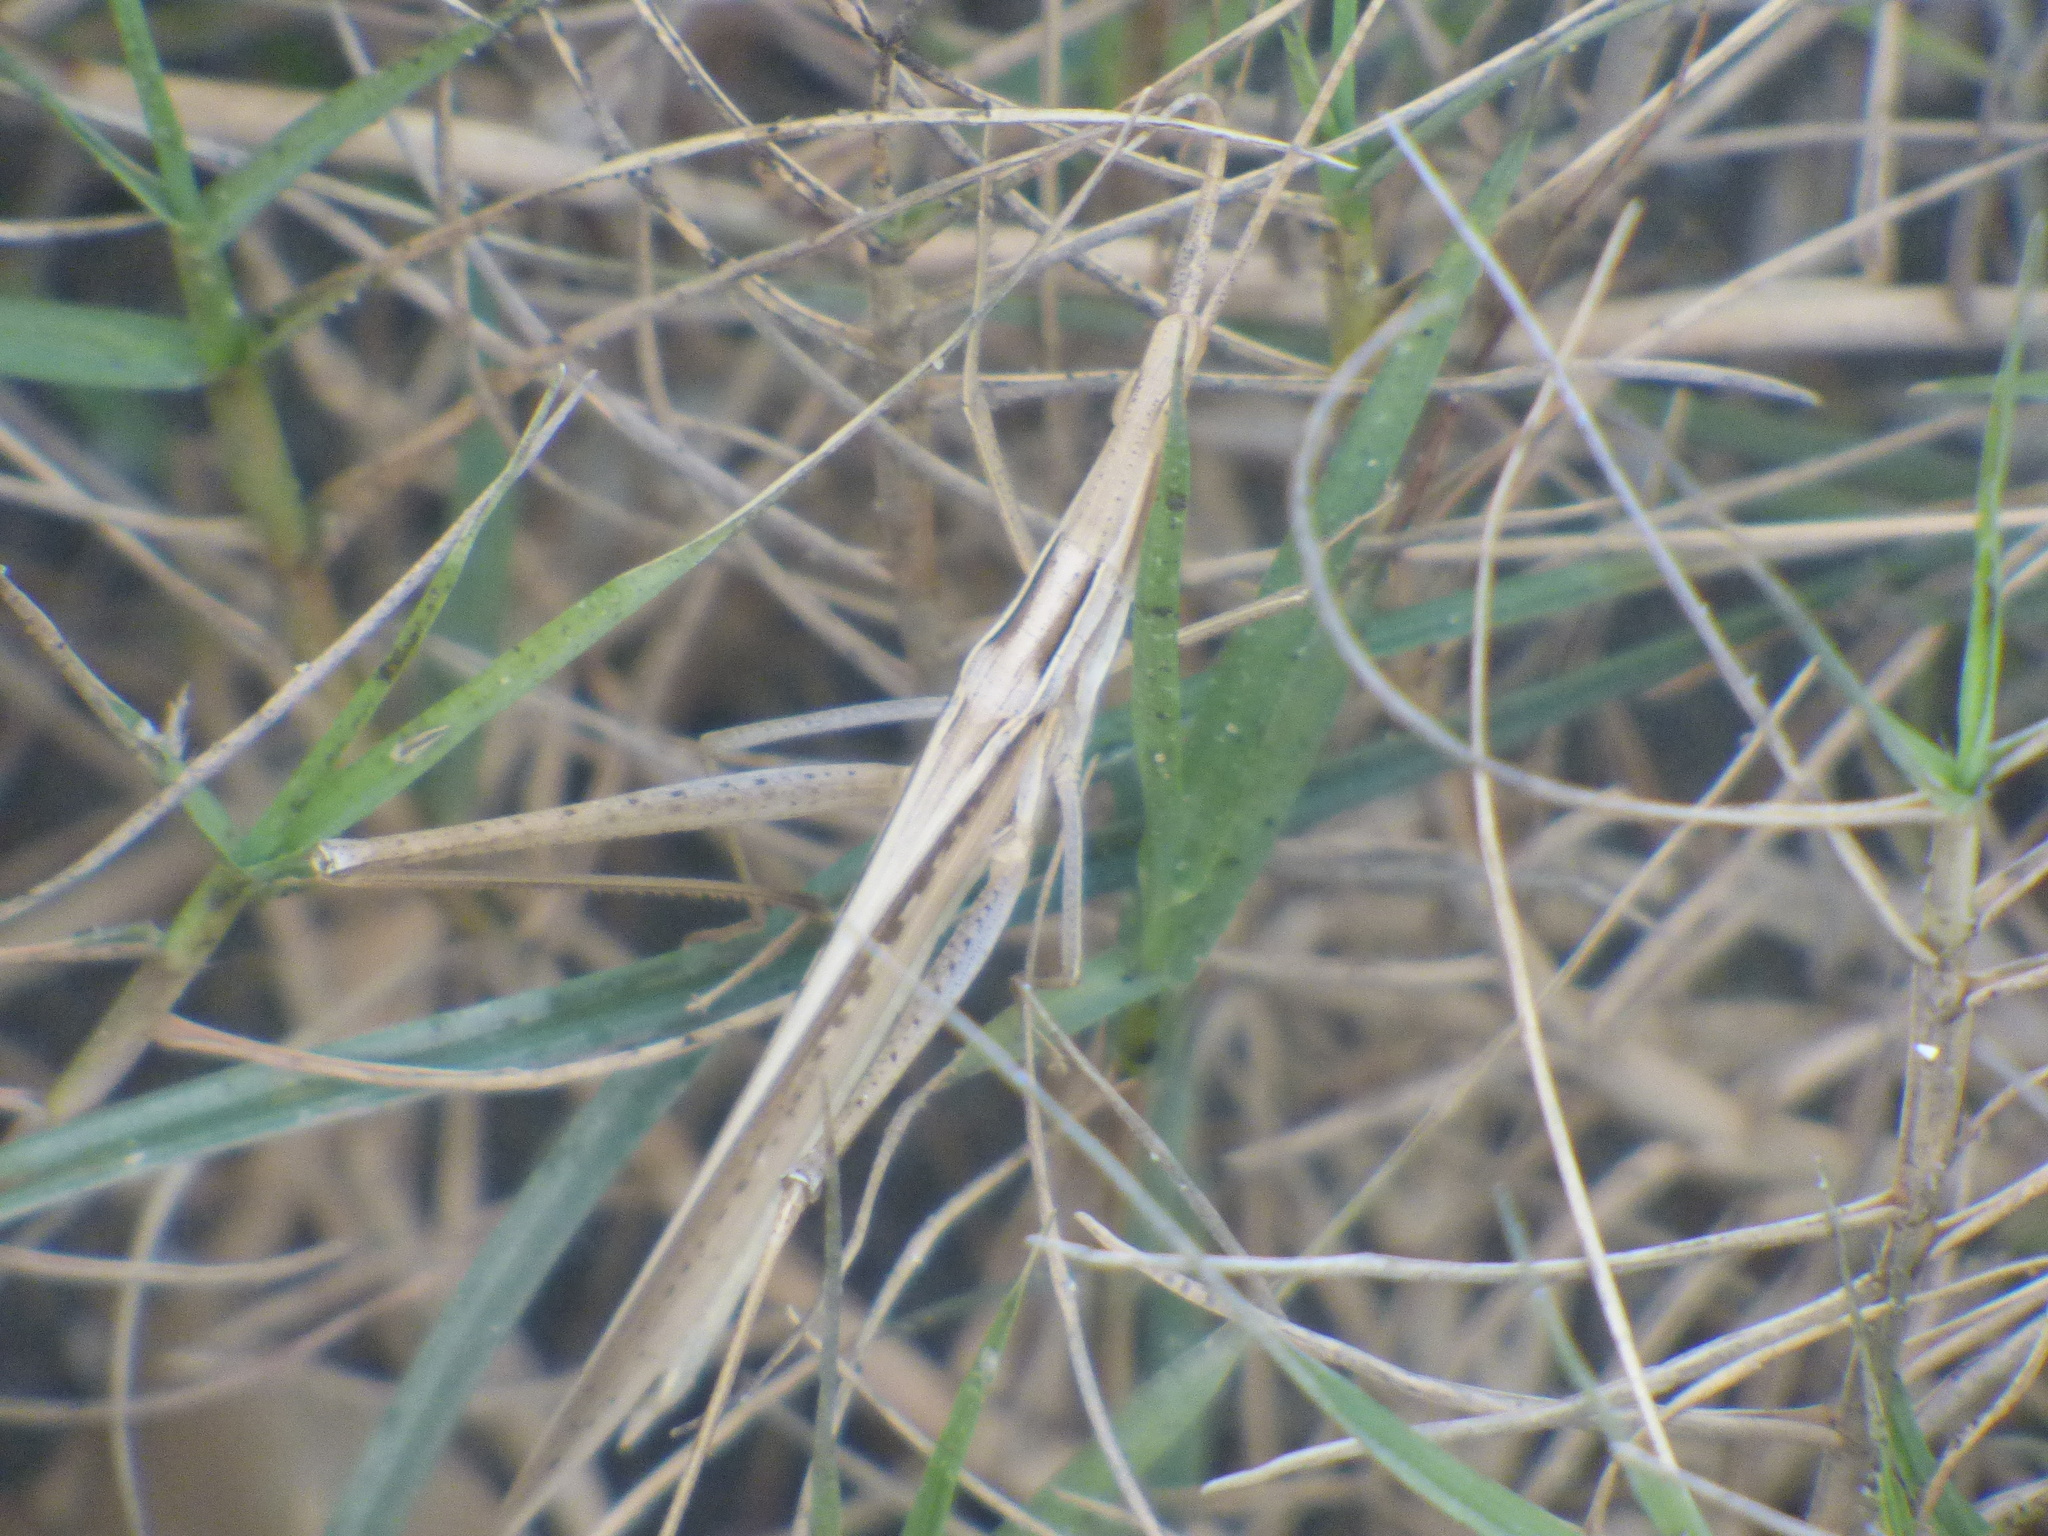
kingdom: Animalia
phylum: Arthropoda
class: Insecta
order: Orthoptera
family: Acrididae
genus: Acrida
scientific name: Acrida cinerea
